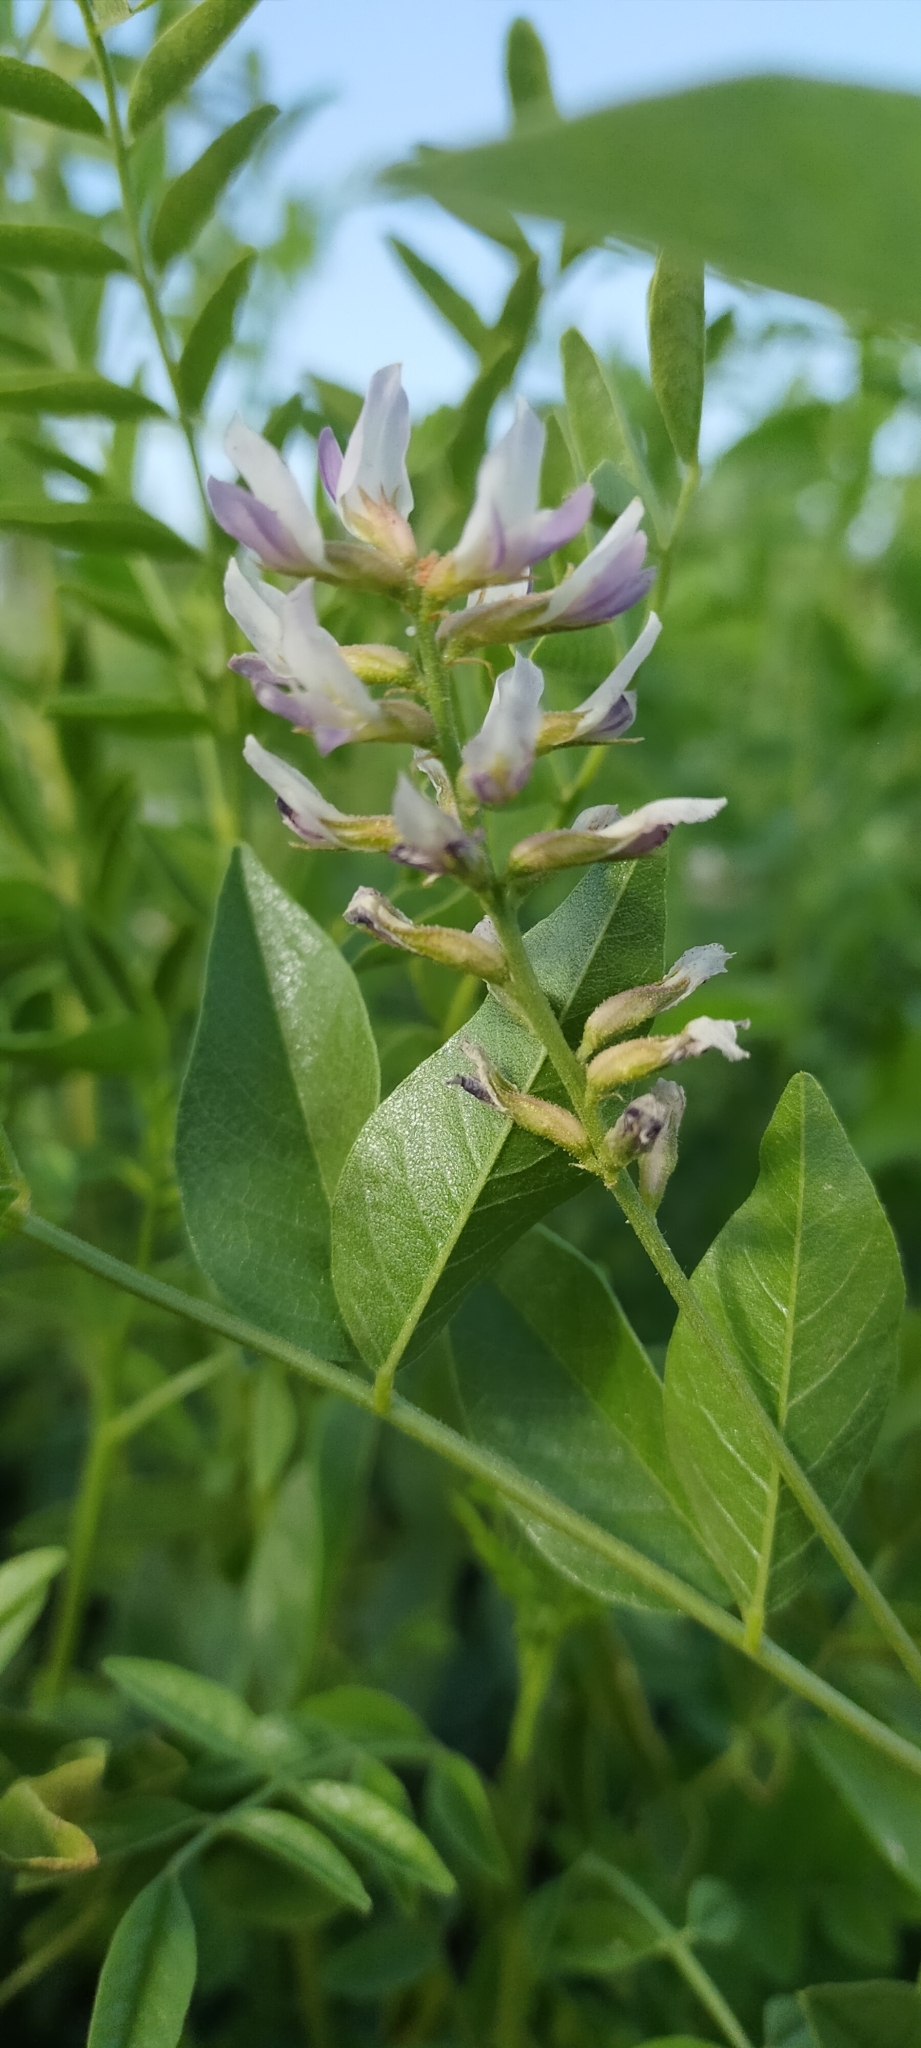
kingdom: Plantae
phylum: Tracheophyta
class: Magnoliopsida
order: Fabales
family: Fabaceae
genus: Glycyrrhiza
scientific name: Glycyrrhiza glabra
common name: Liquorice
